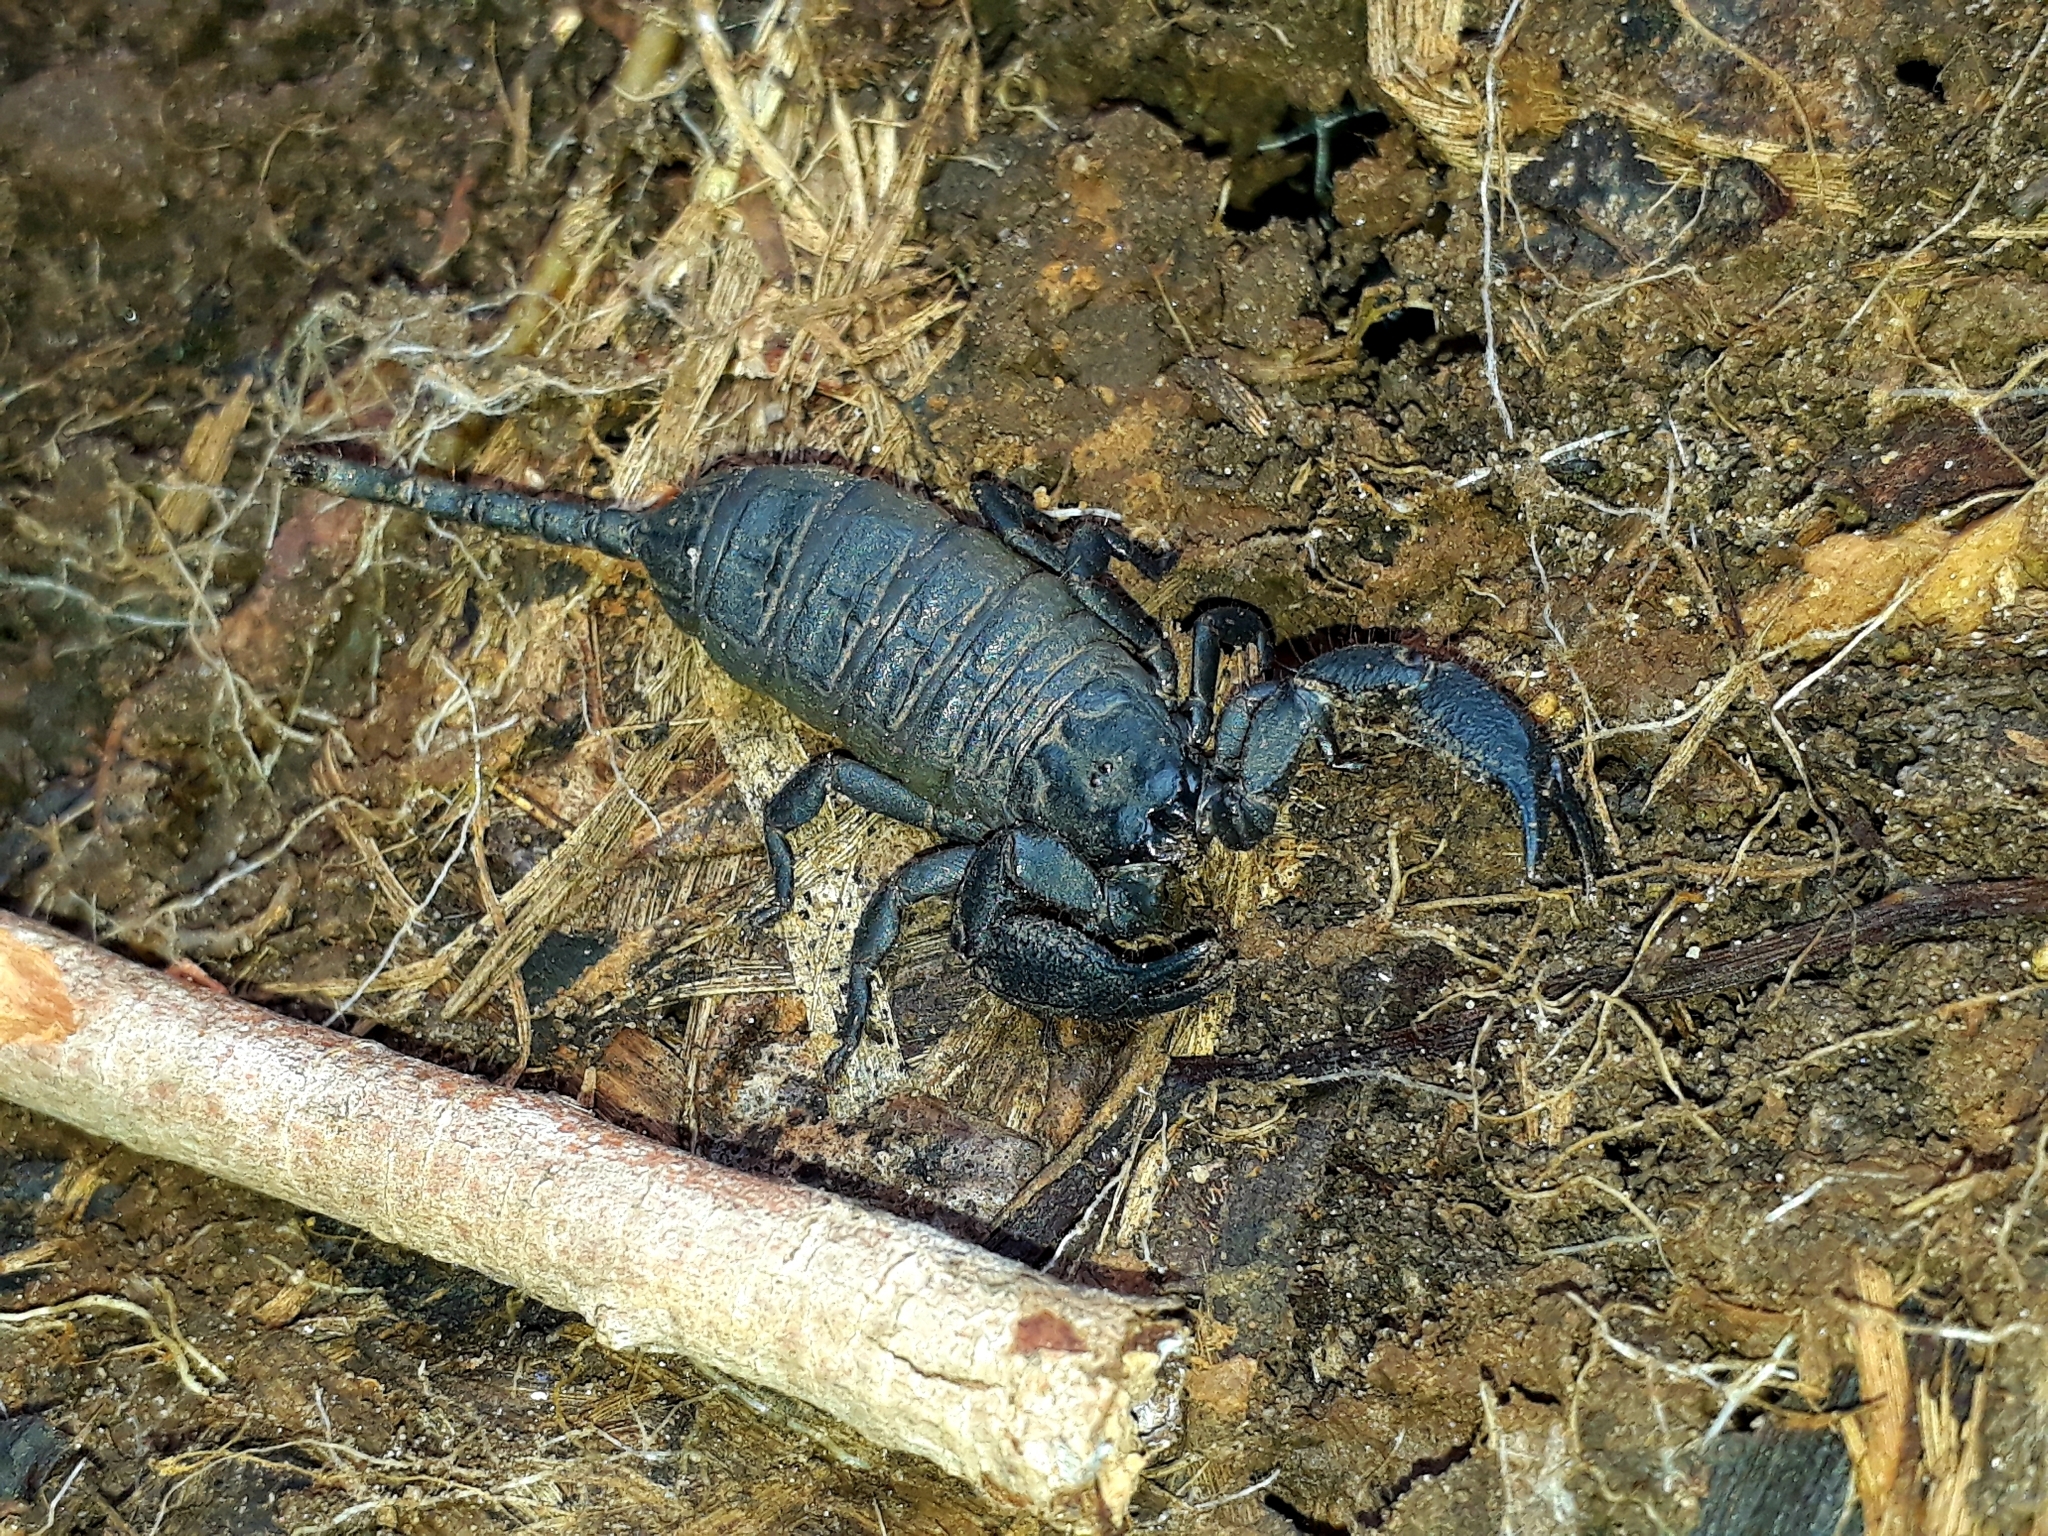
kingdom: Animalia
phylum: Arthropoda
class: Arachnida
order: Scorpiones
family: Hormuridae
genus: Opisthacanthus
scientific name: Opisthacanthus capensis
